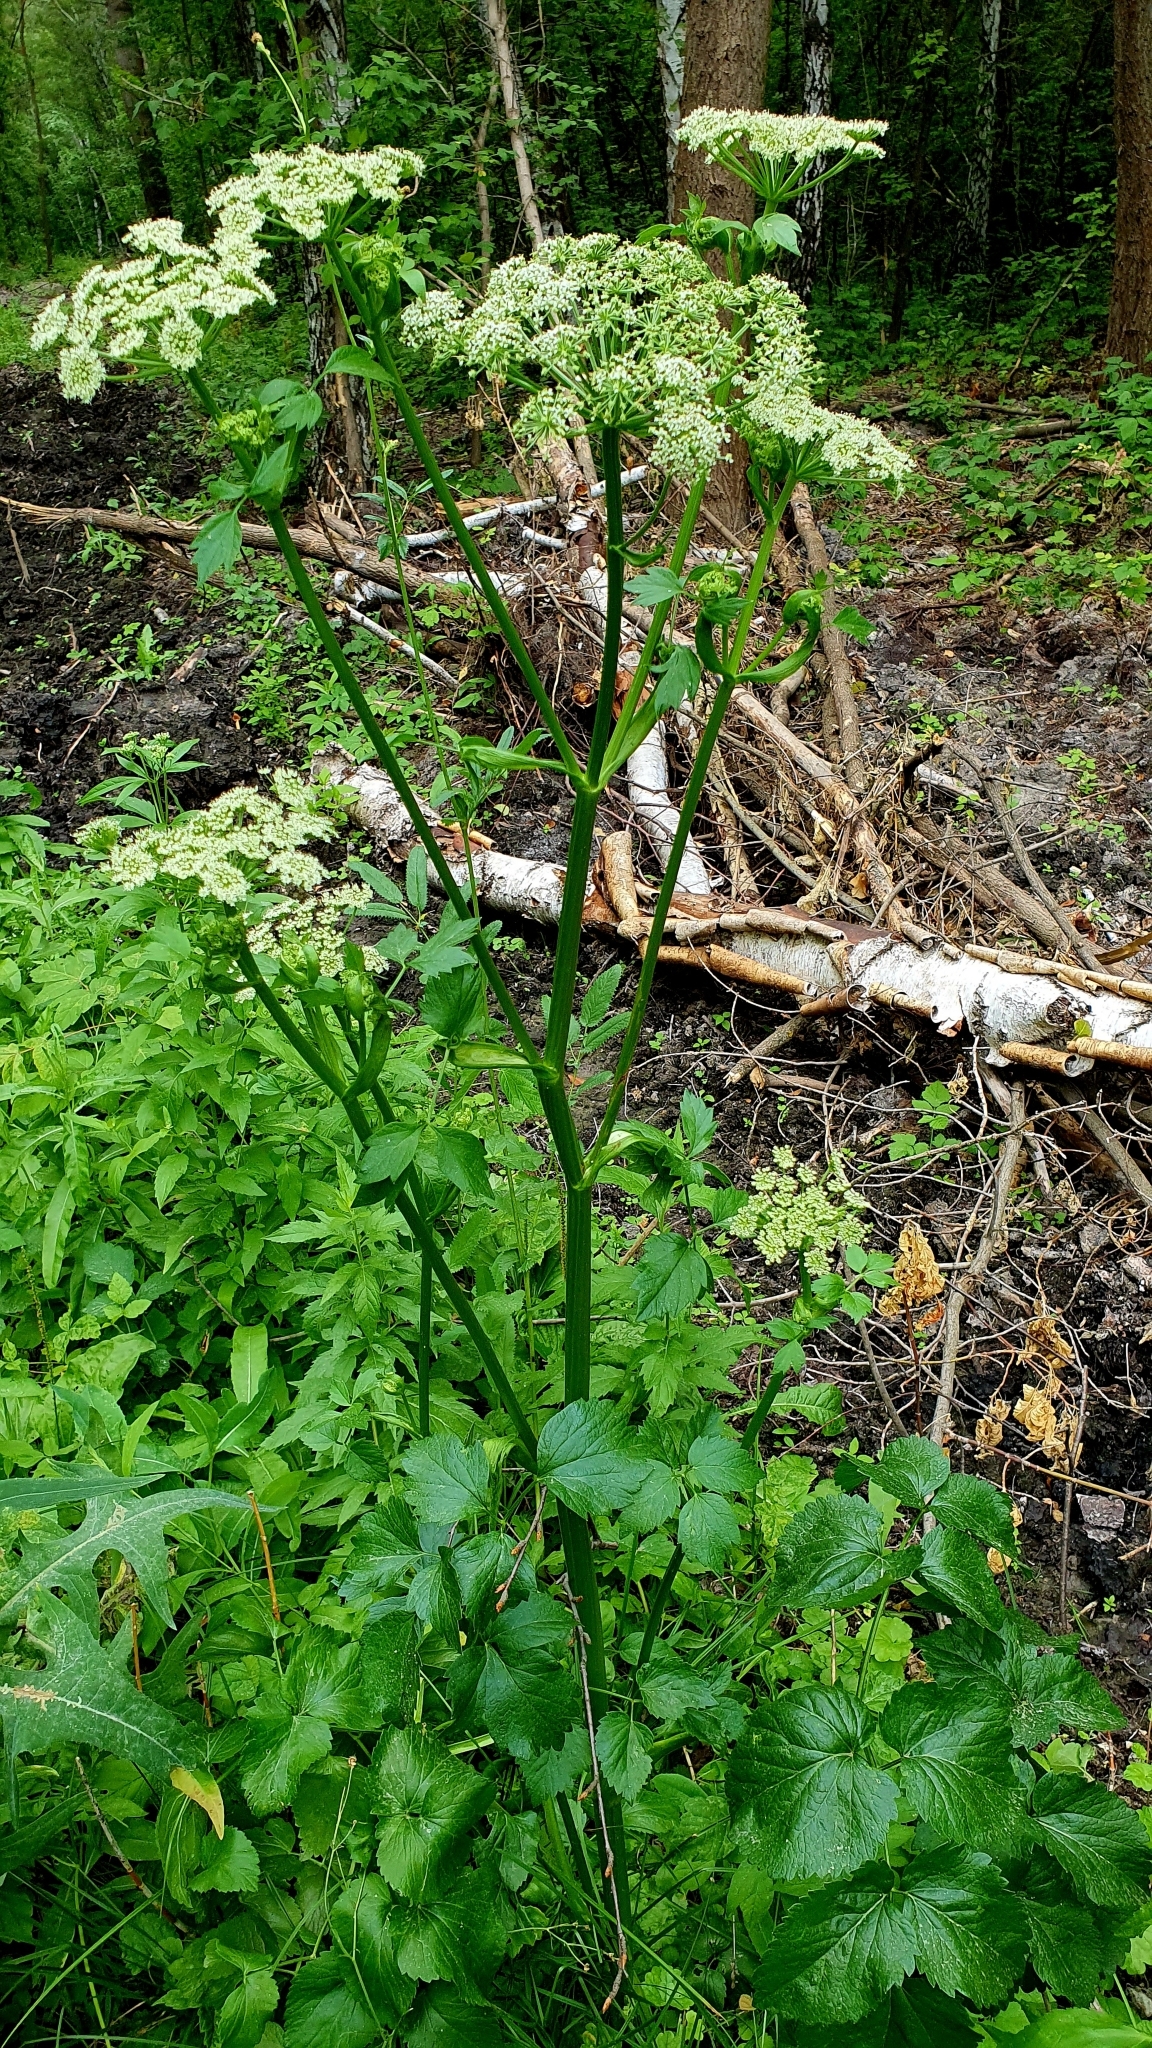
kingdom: Plantae
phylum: Tracheophyta
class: Magnoliopsida
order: Apiales
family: Apiaceae
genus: Ostericum
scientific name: Ostericum palustre
